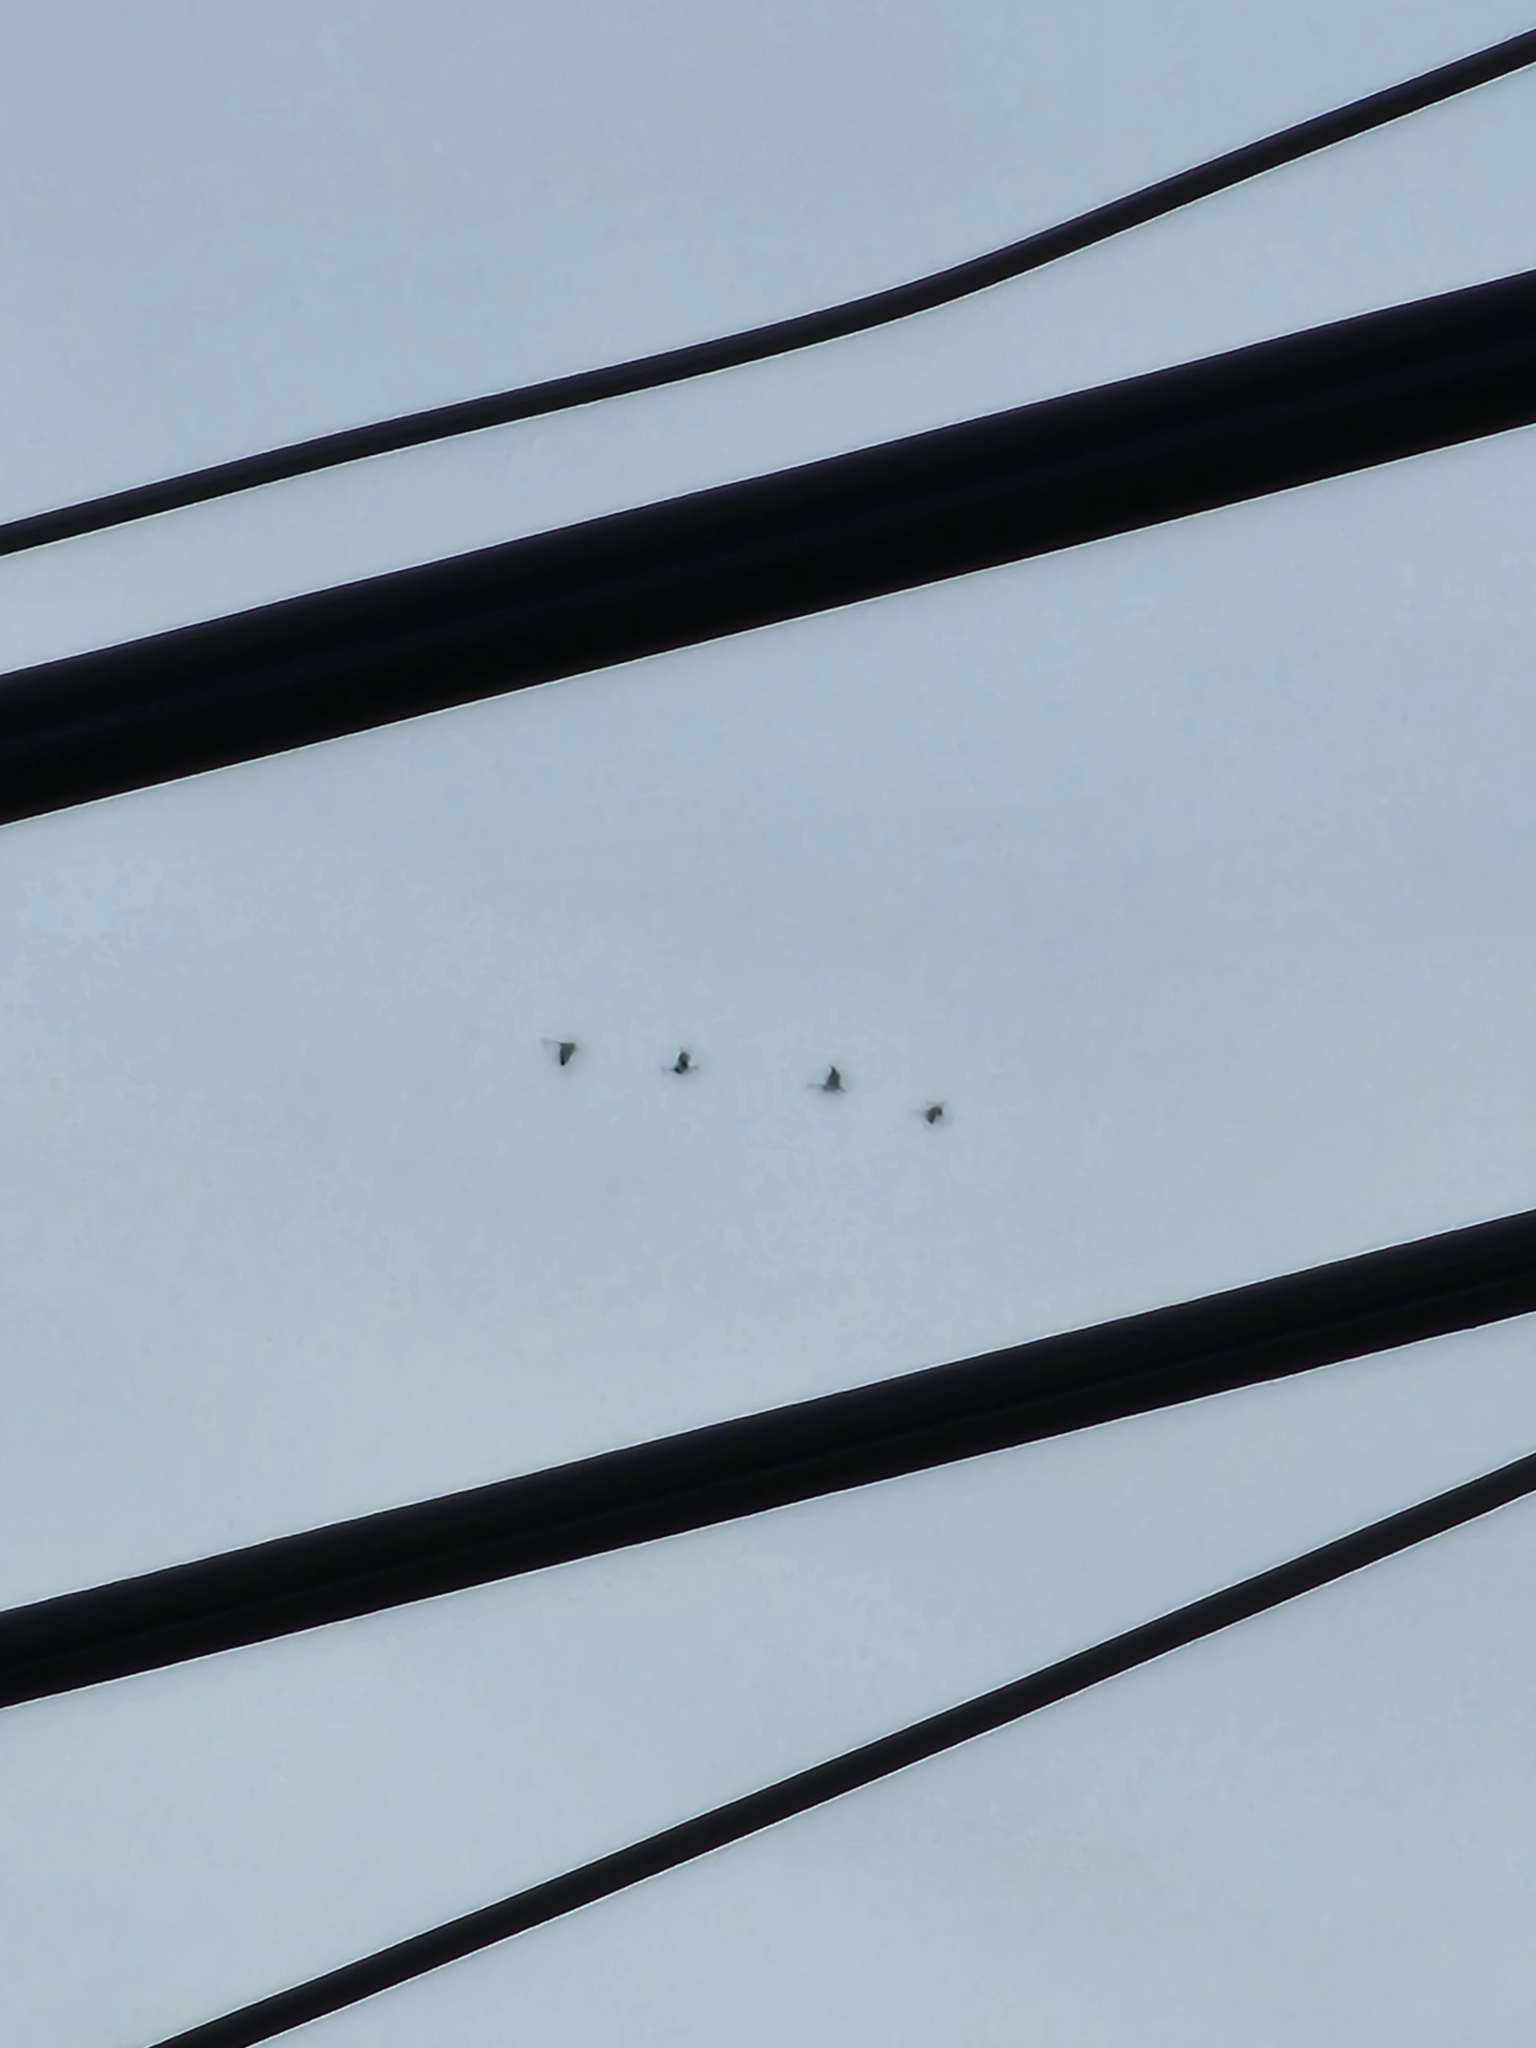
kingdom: Animalia
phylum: Chordata
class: Aves
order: Gruiformes
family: Gruidae
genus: Grus
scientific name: Grus canadensis
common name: Sandhill crane
